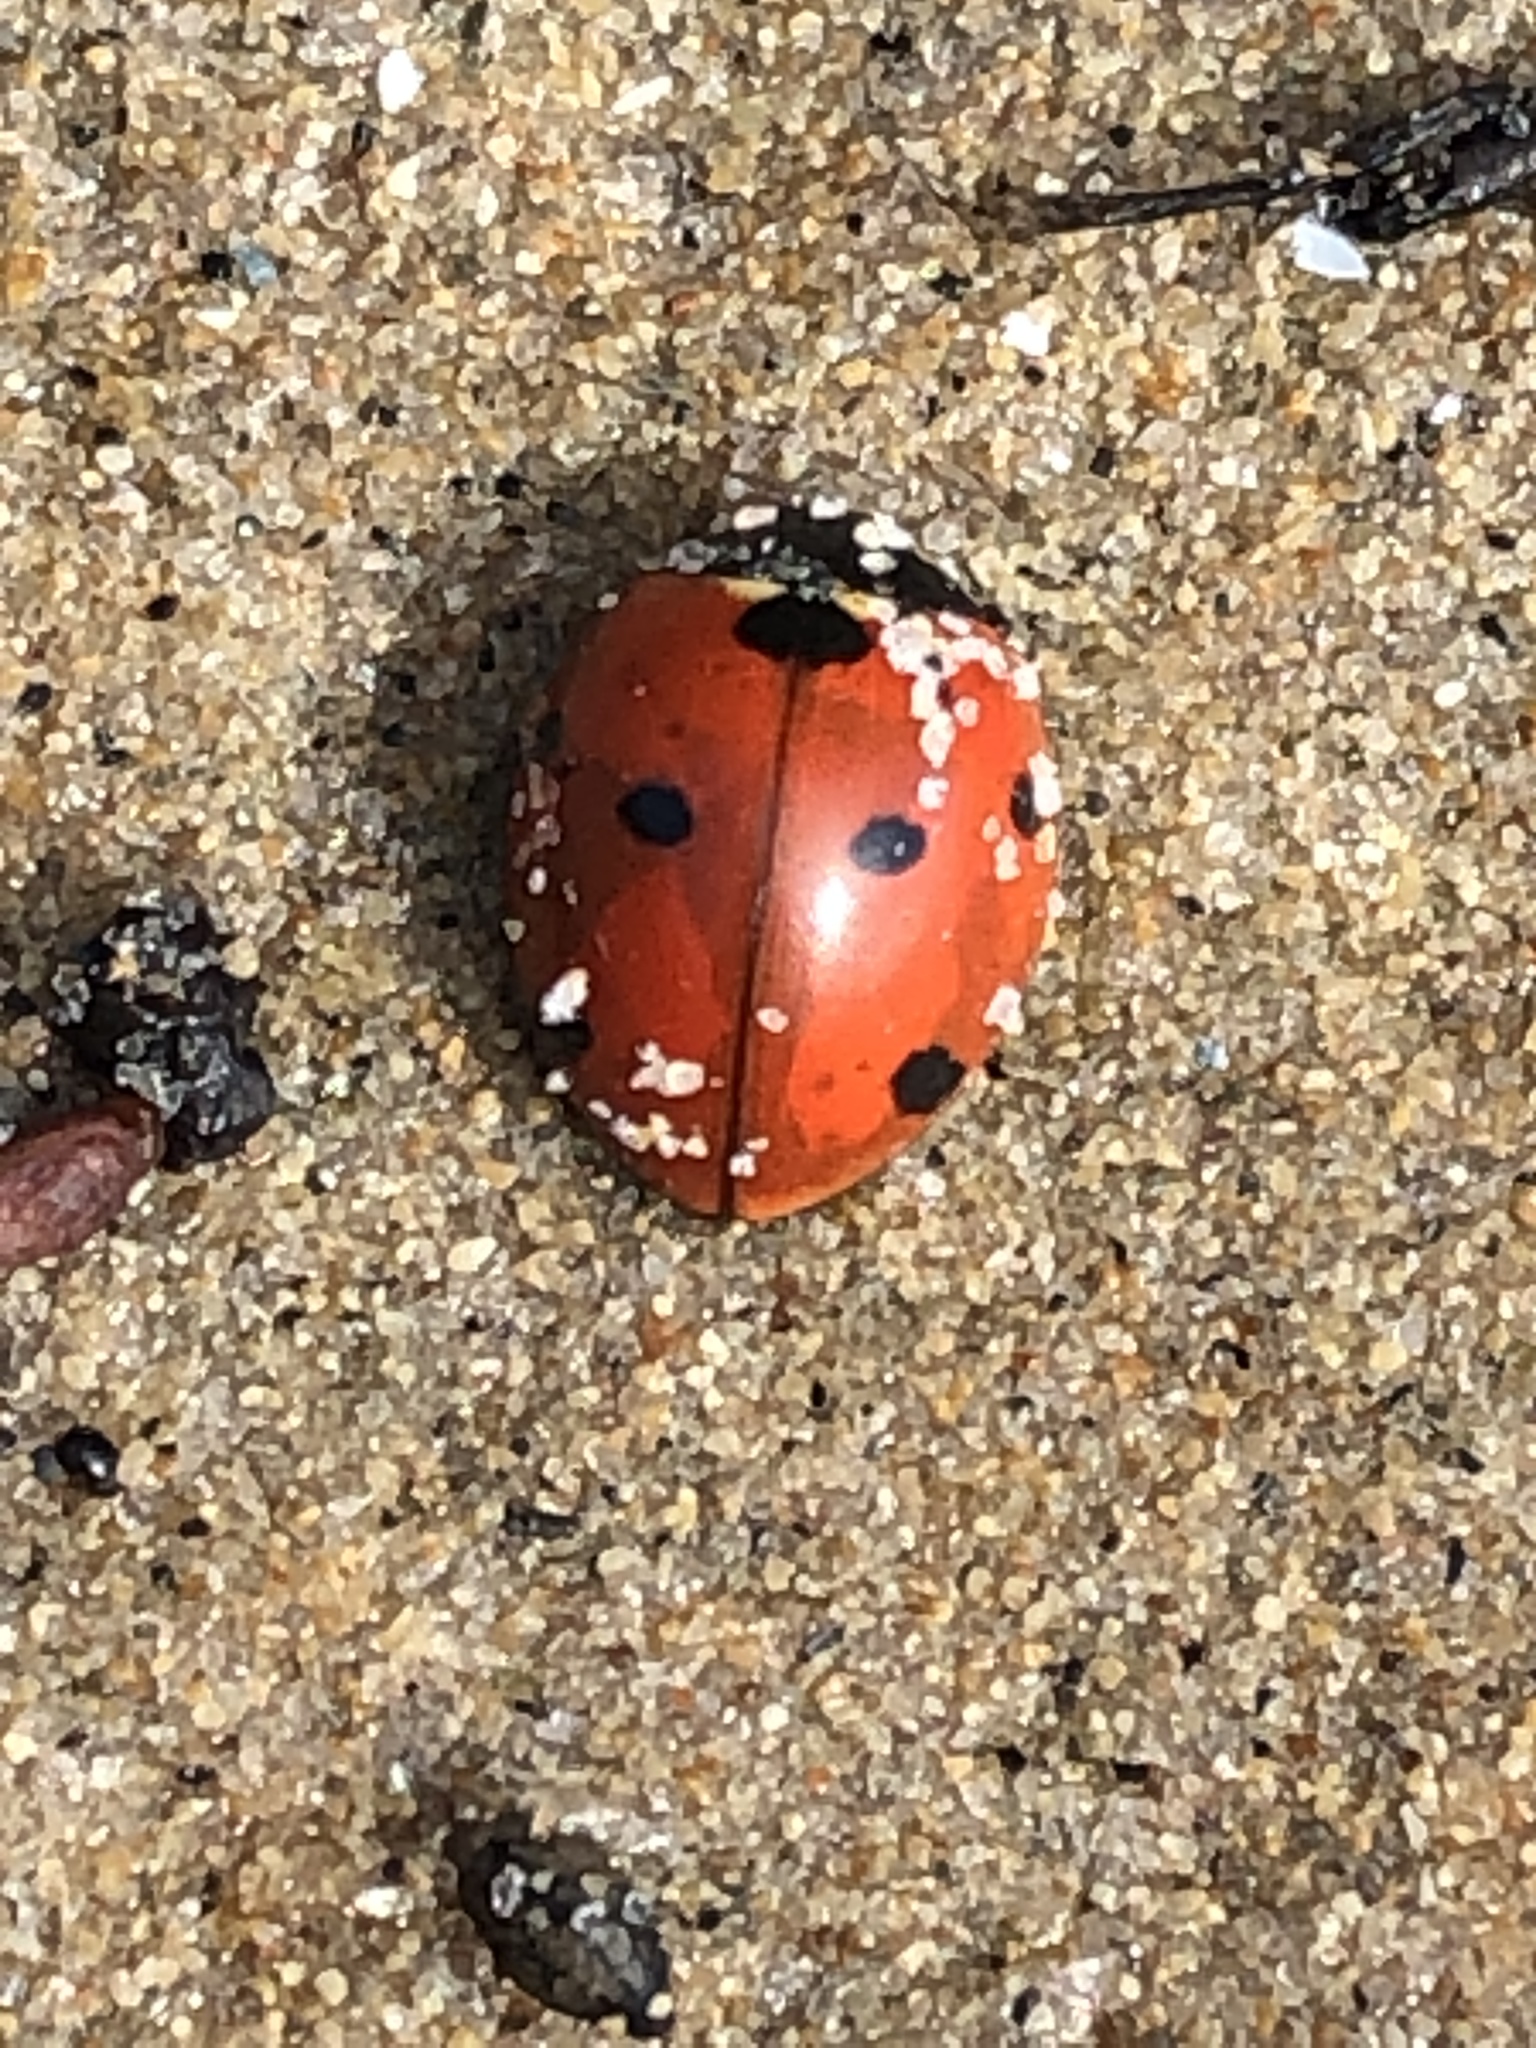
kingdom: Animalia
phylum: Arthropoda
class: Insecta
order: Coleoptera
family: Coccinellidae
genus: Coccinella
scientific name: Coccinella septempunctata
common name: Sevenspotted lady beetle
